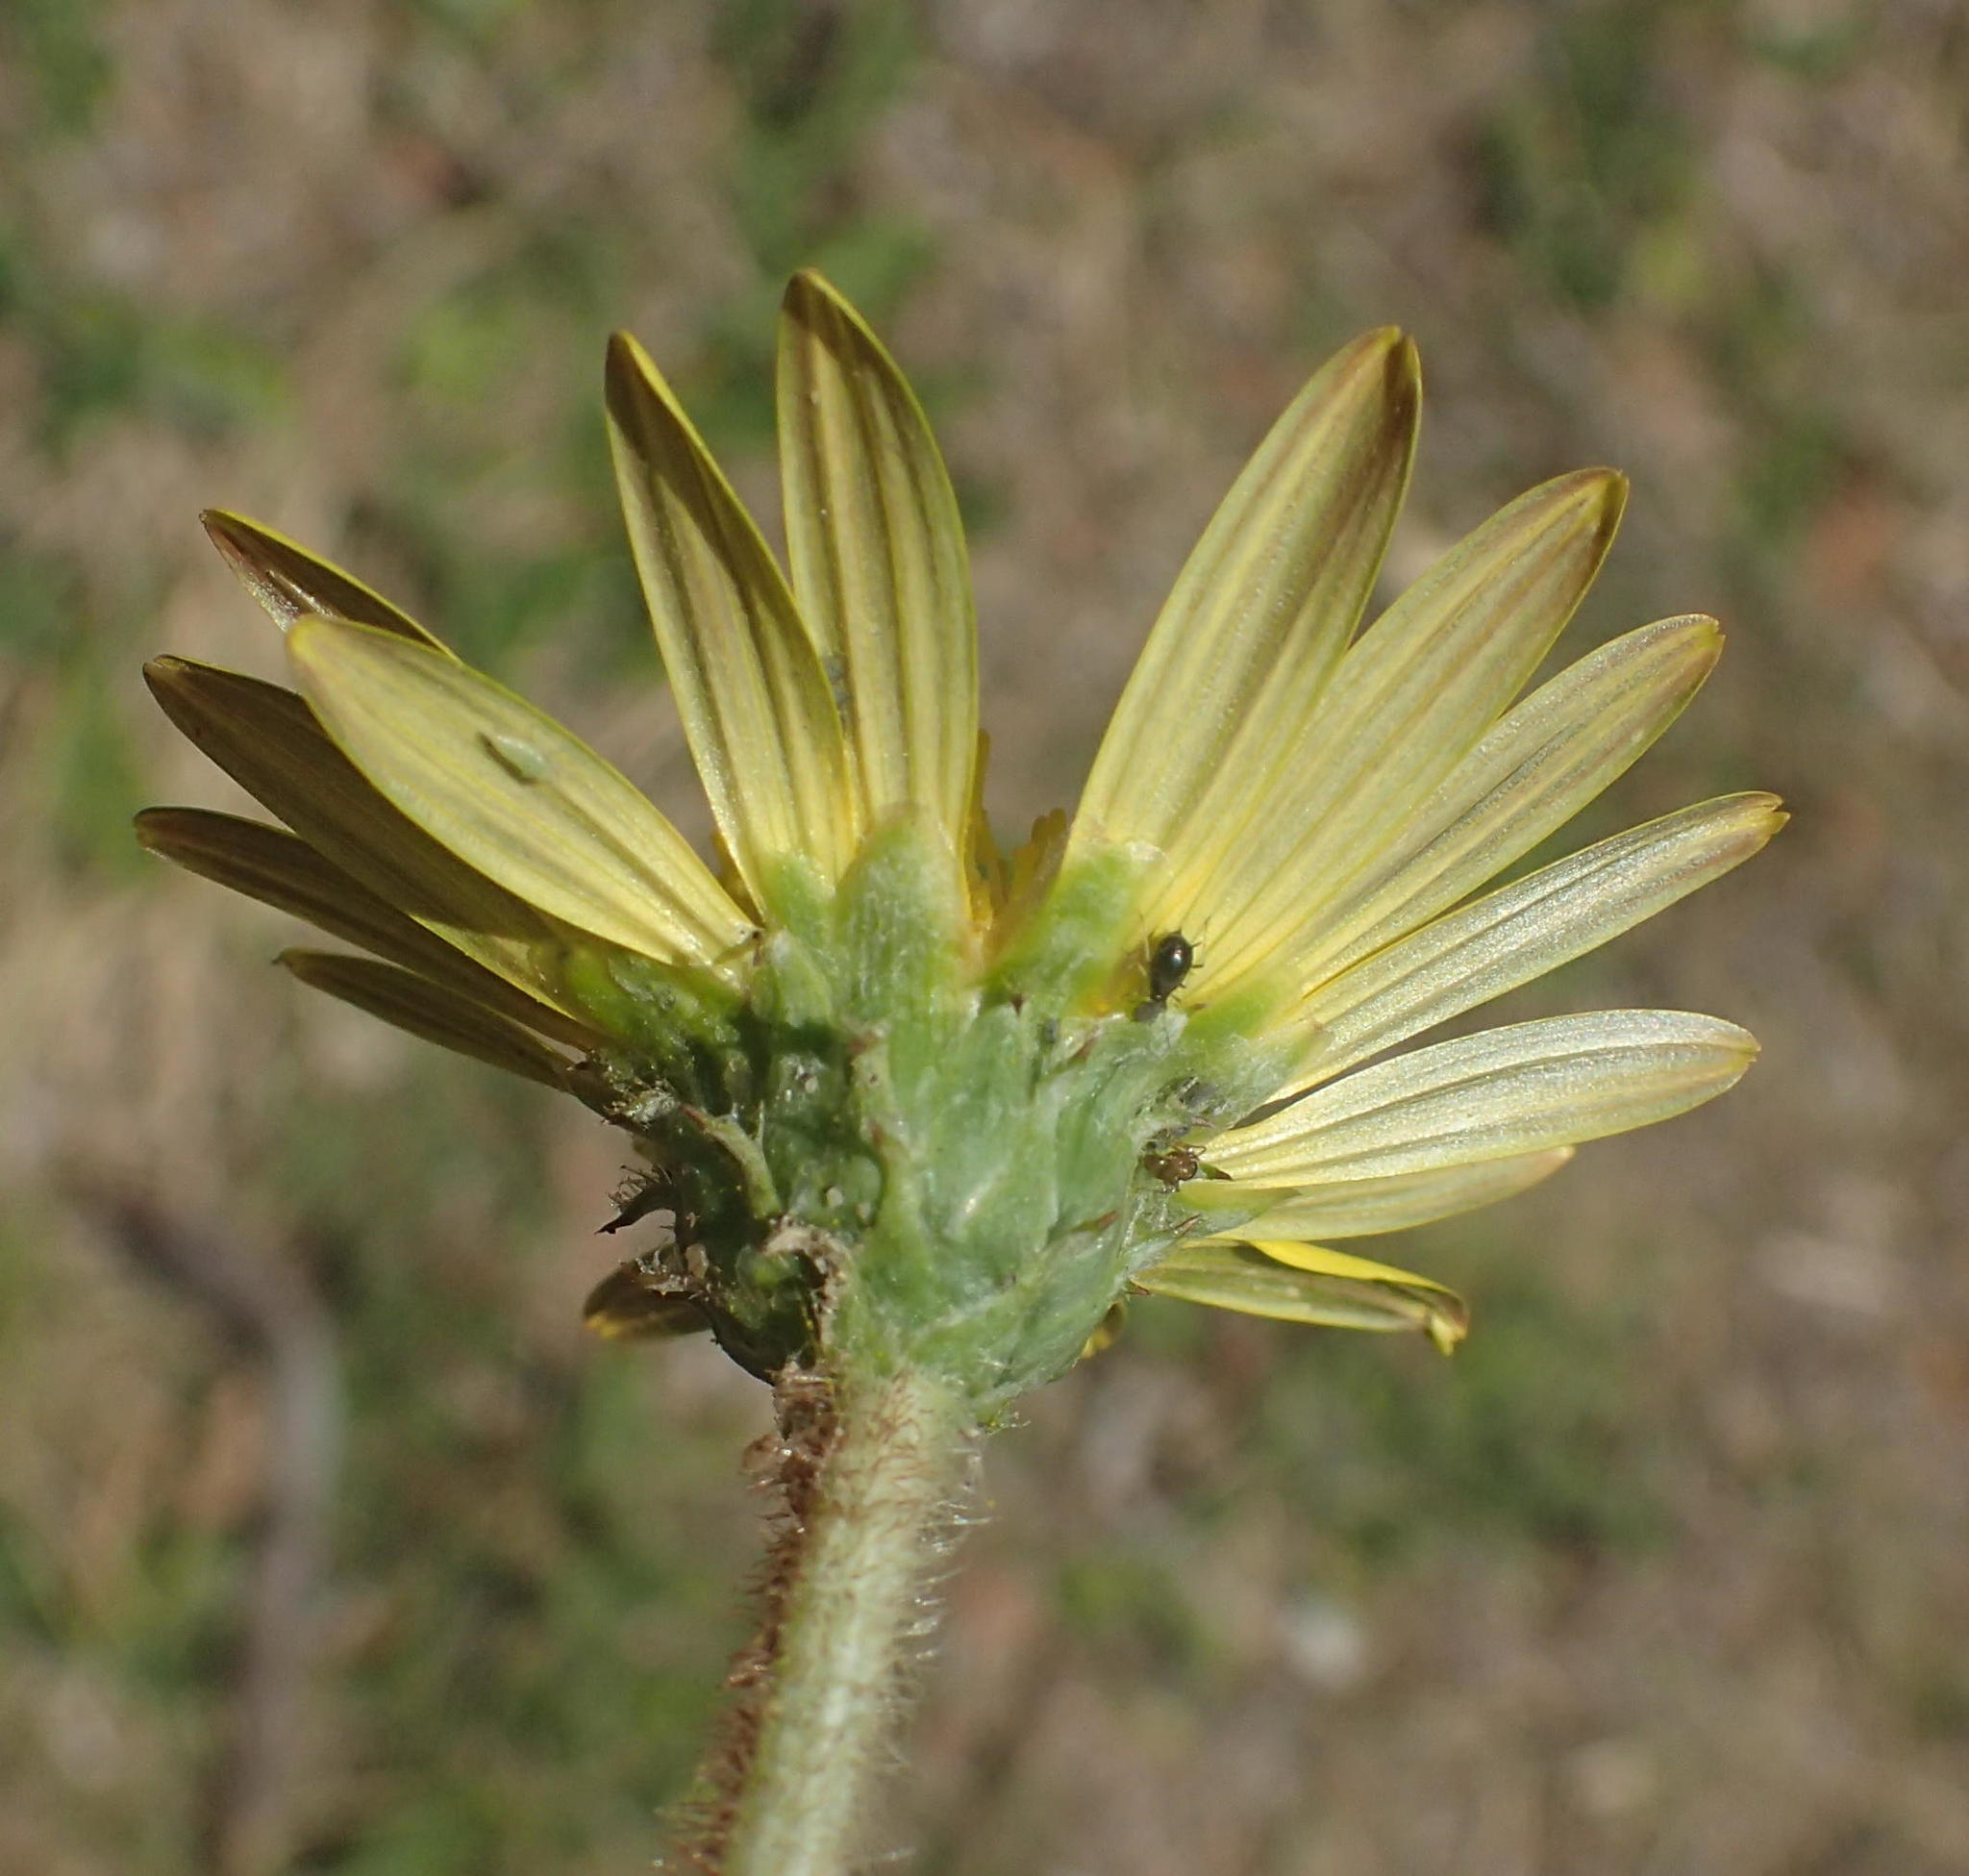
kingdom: Plantae
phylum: Tracheophyta
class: Magnoliopsida
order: Asterales
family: Asteraceae
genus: Arctotheca
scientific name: Arctotheca prostrata
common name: Capeweed
